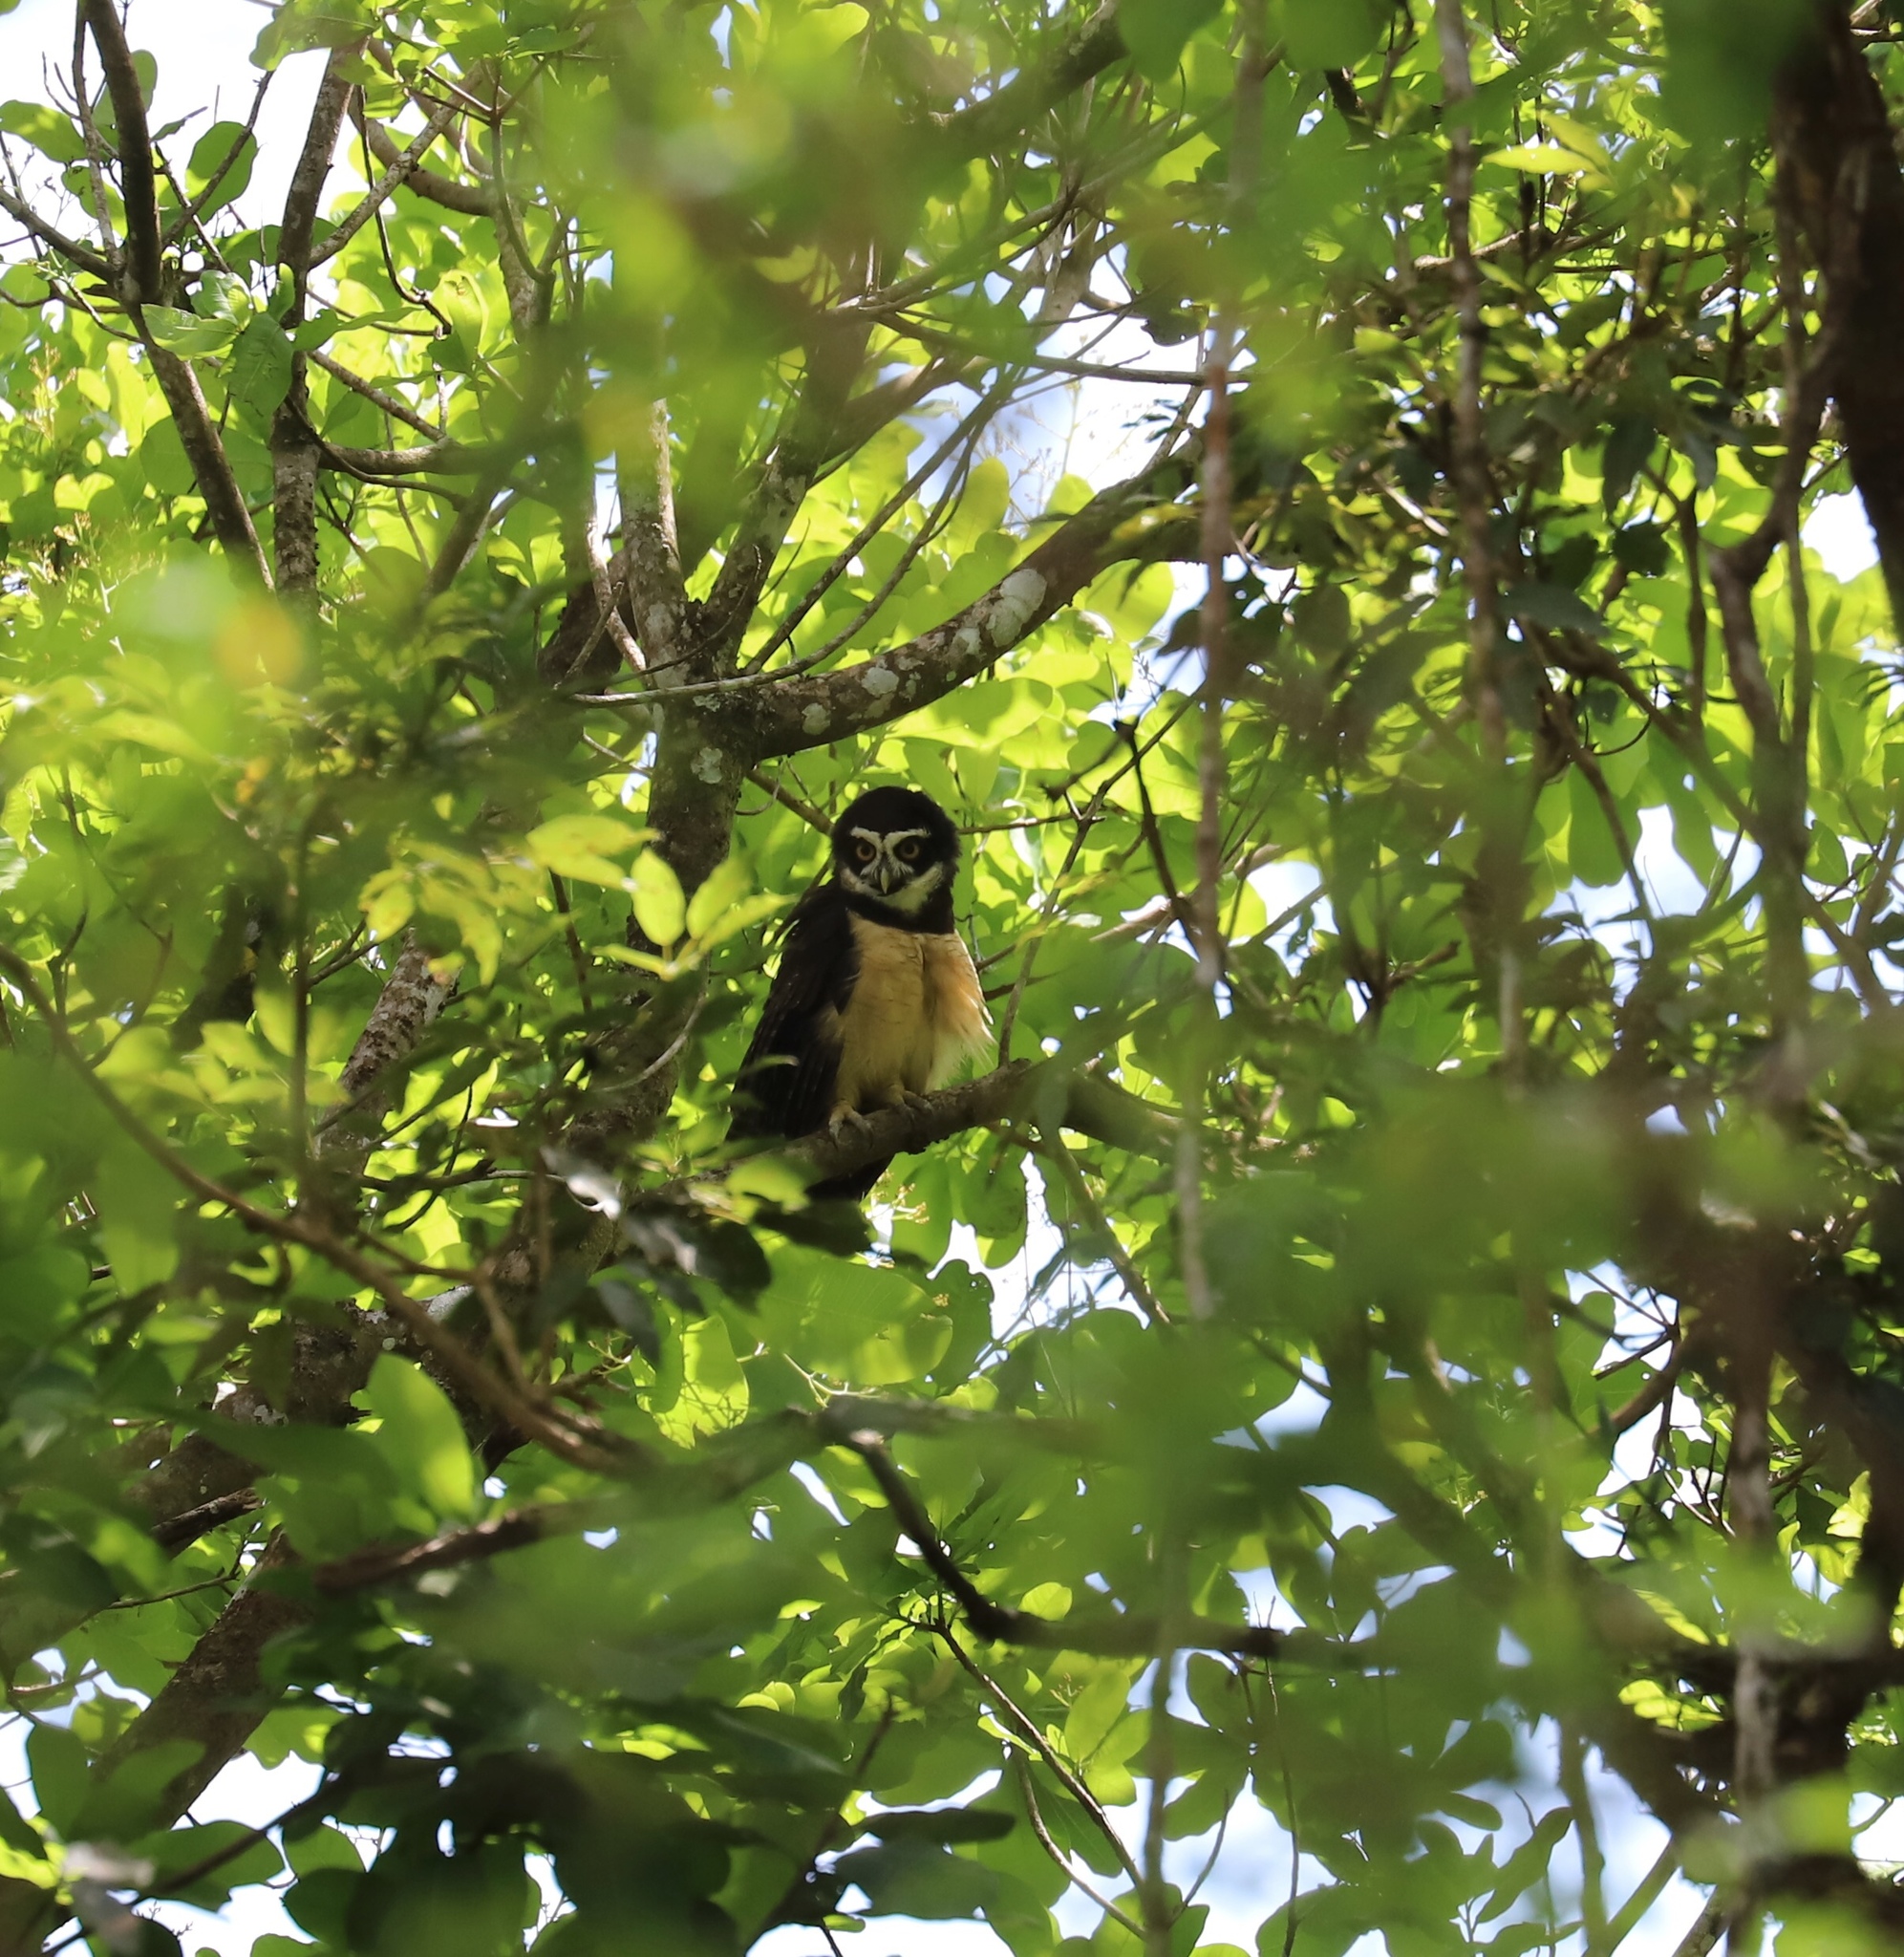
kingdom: Animalia
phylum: Chordata
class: Aves
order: Strigiformes
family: Strigidae
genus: Pulsatrix
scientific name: Pulsatrix perspicillata
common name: Spectacled owl
